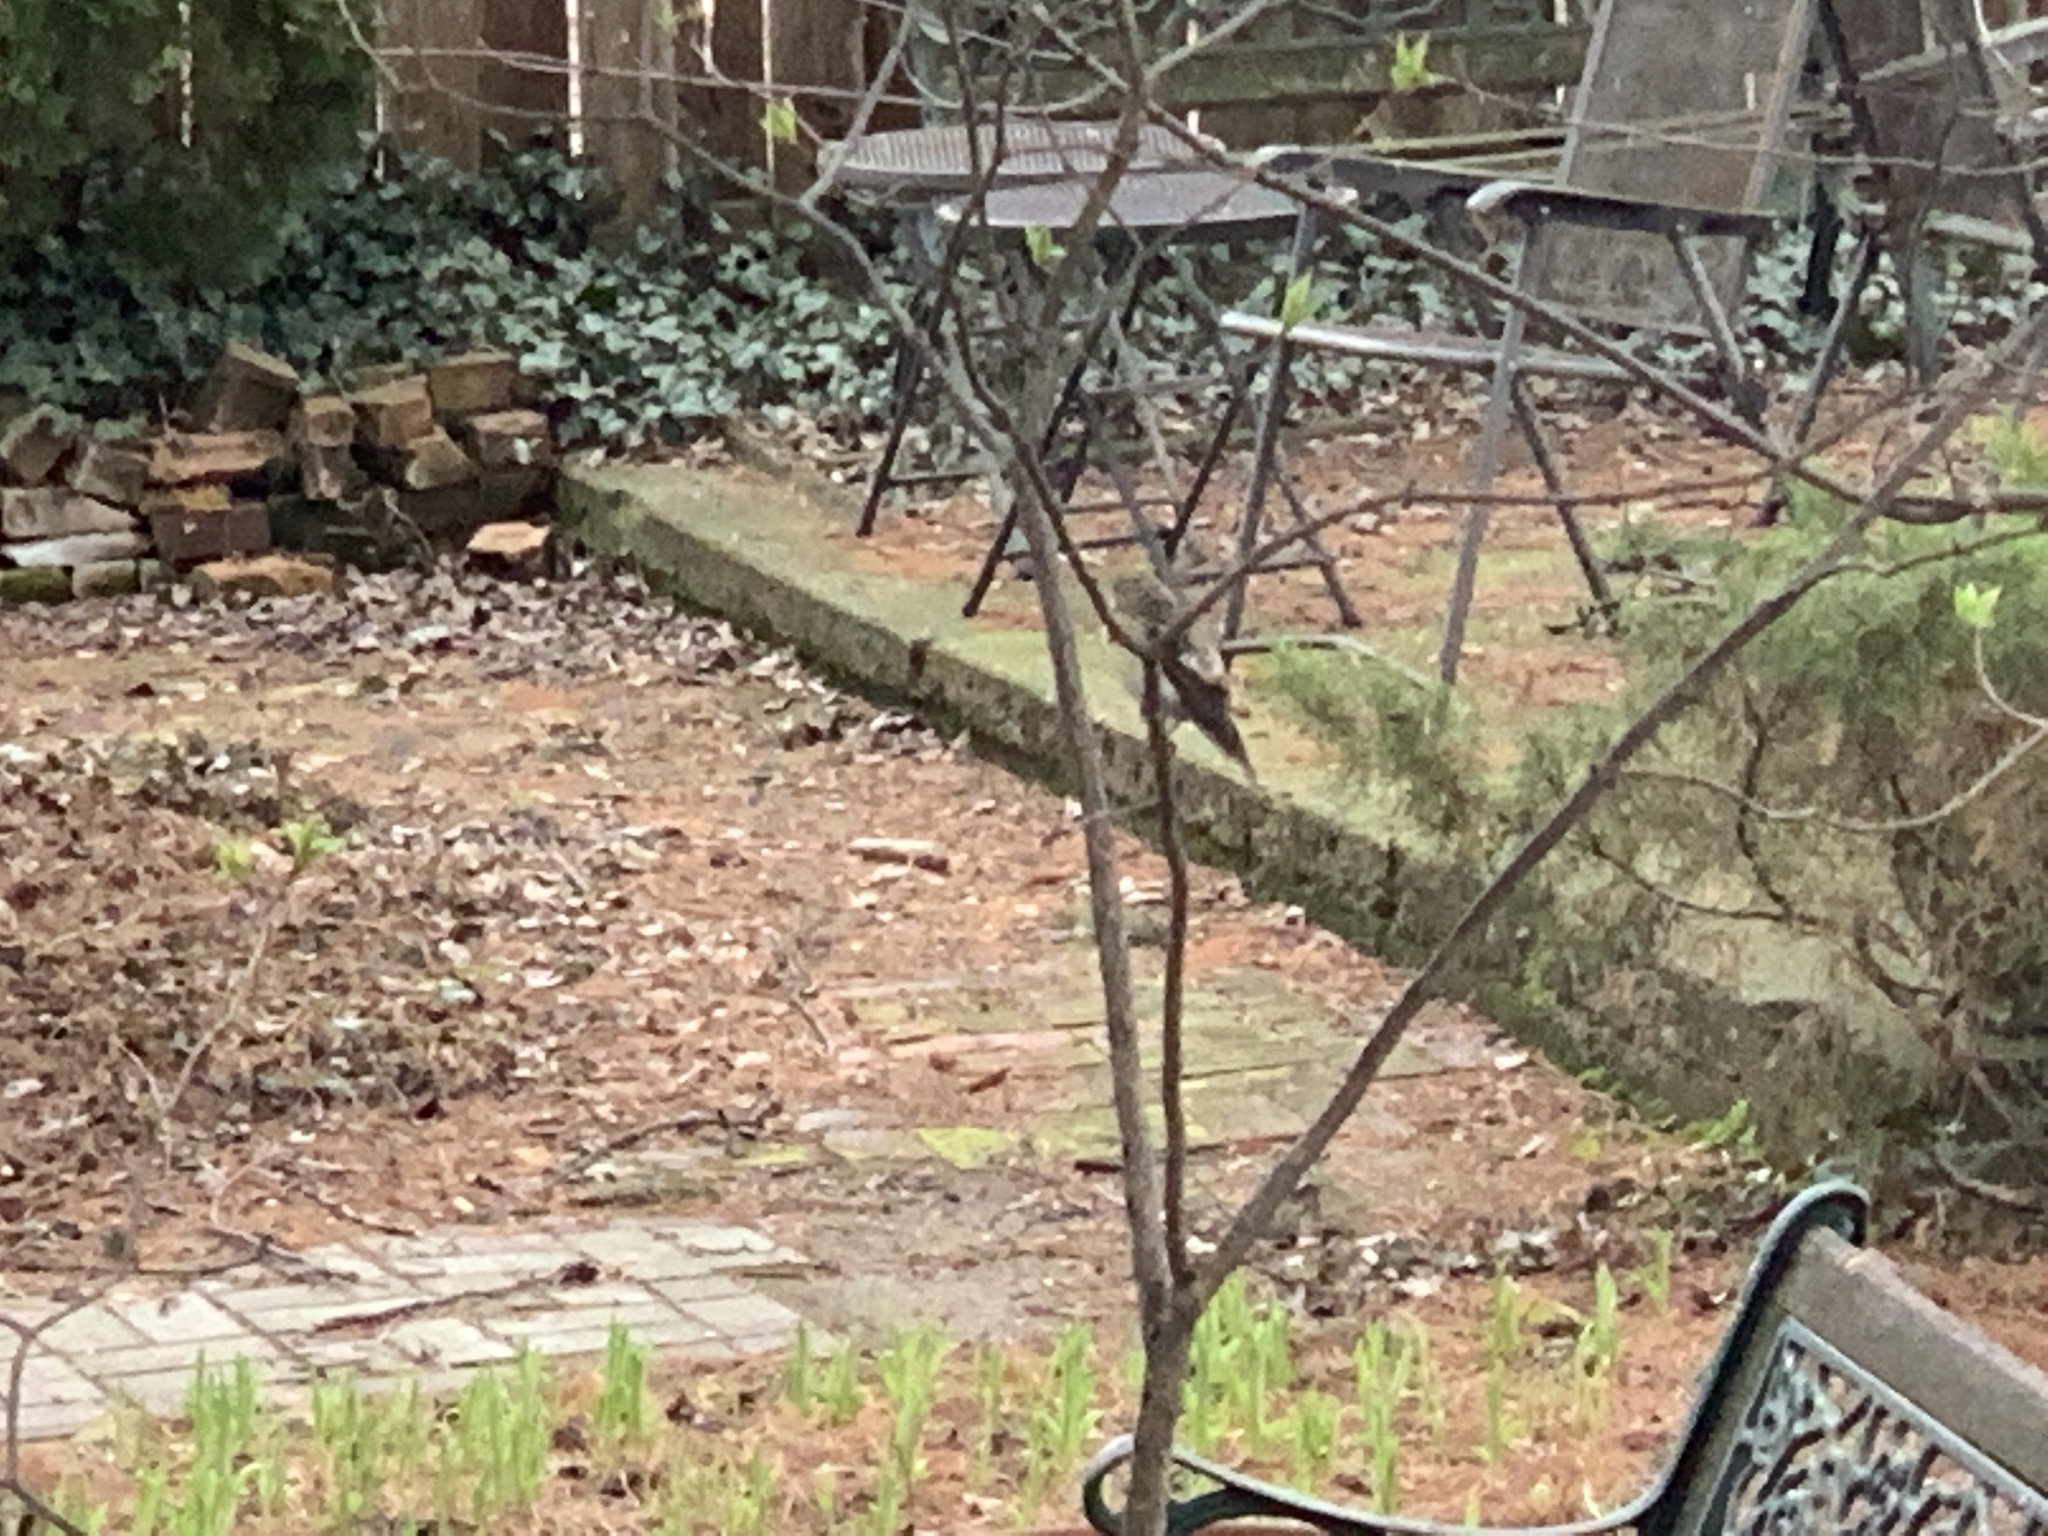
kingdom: Animalia
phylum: Chordata
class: Aves
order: Passeriformes
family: Fringillidae
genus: Spinus
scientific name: Spinus tristis
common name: American goldfinch
